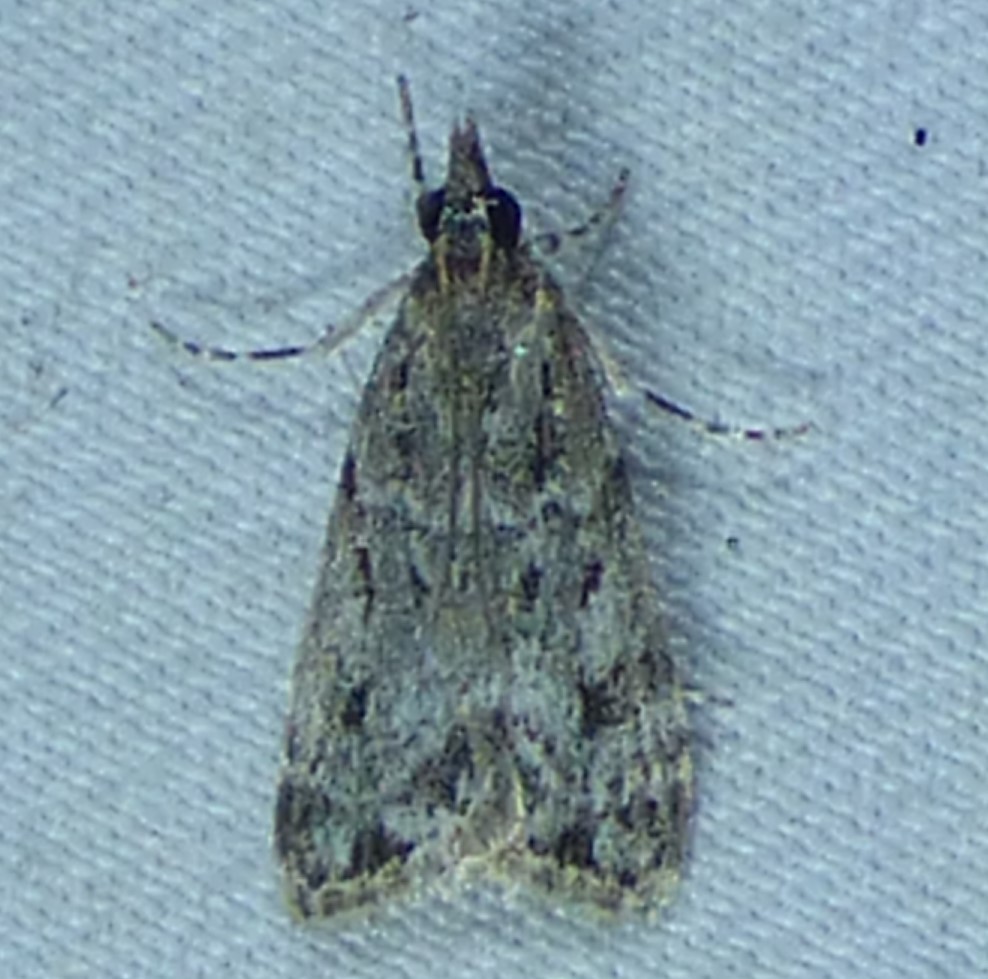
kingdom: Animalia
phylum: Arthropoda
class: Insecta
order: Lepidoptera
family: Crambidae
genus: Eudonia
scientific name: Eudonia heterosalis
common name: Mcdunnough's eudonia
